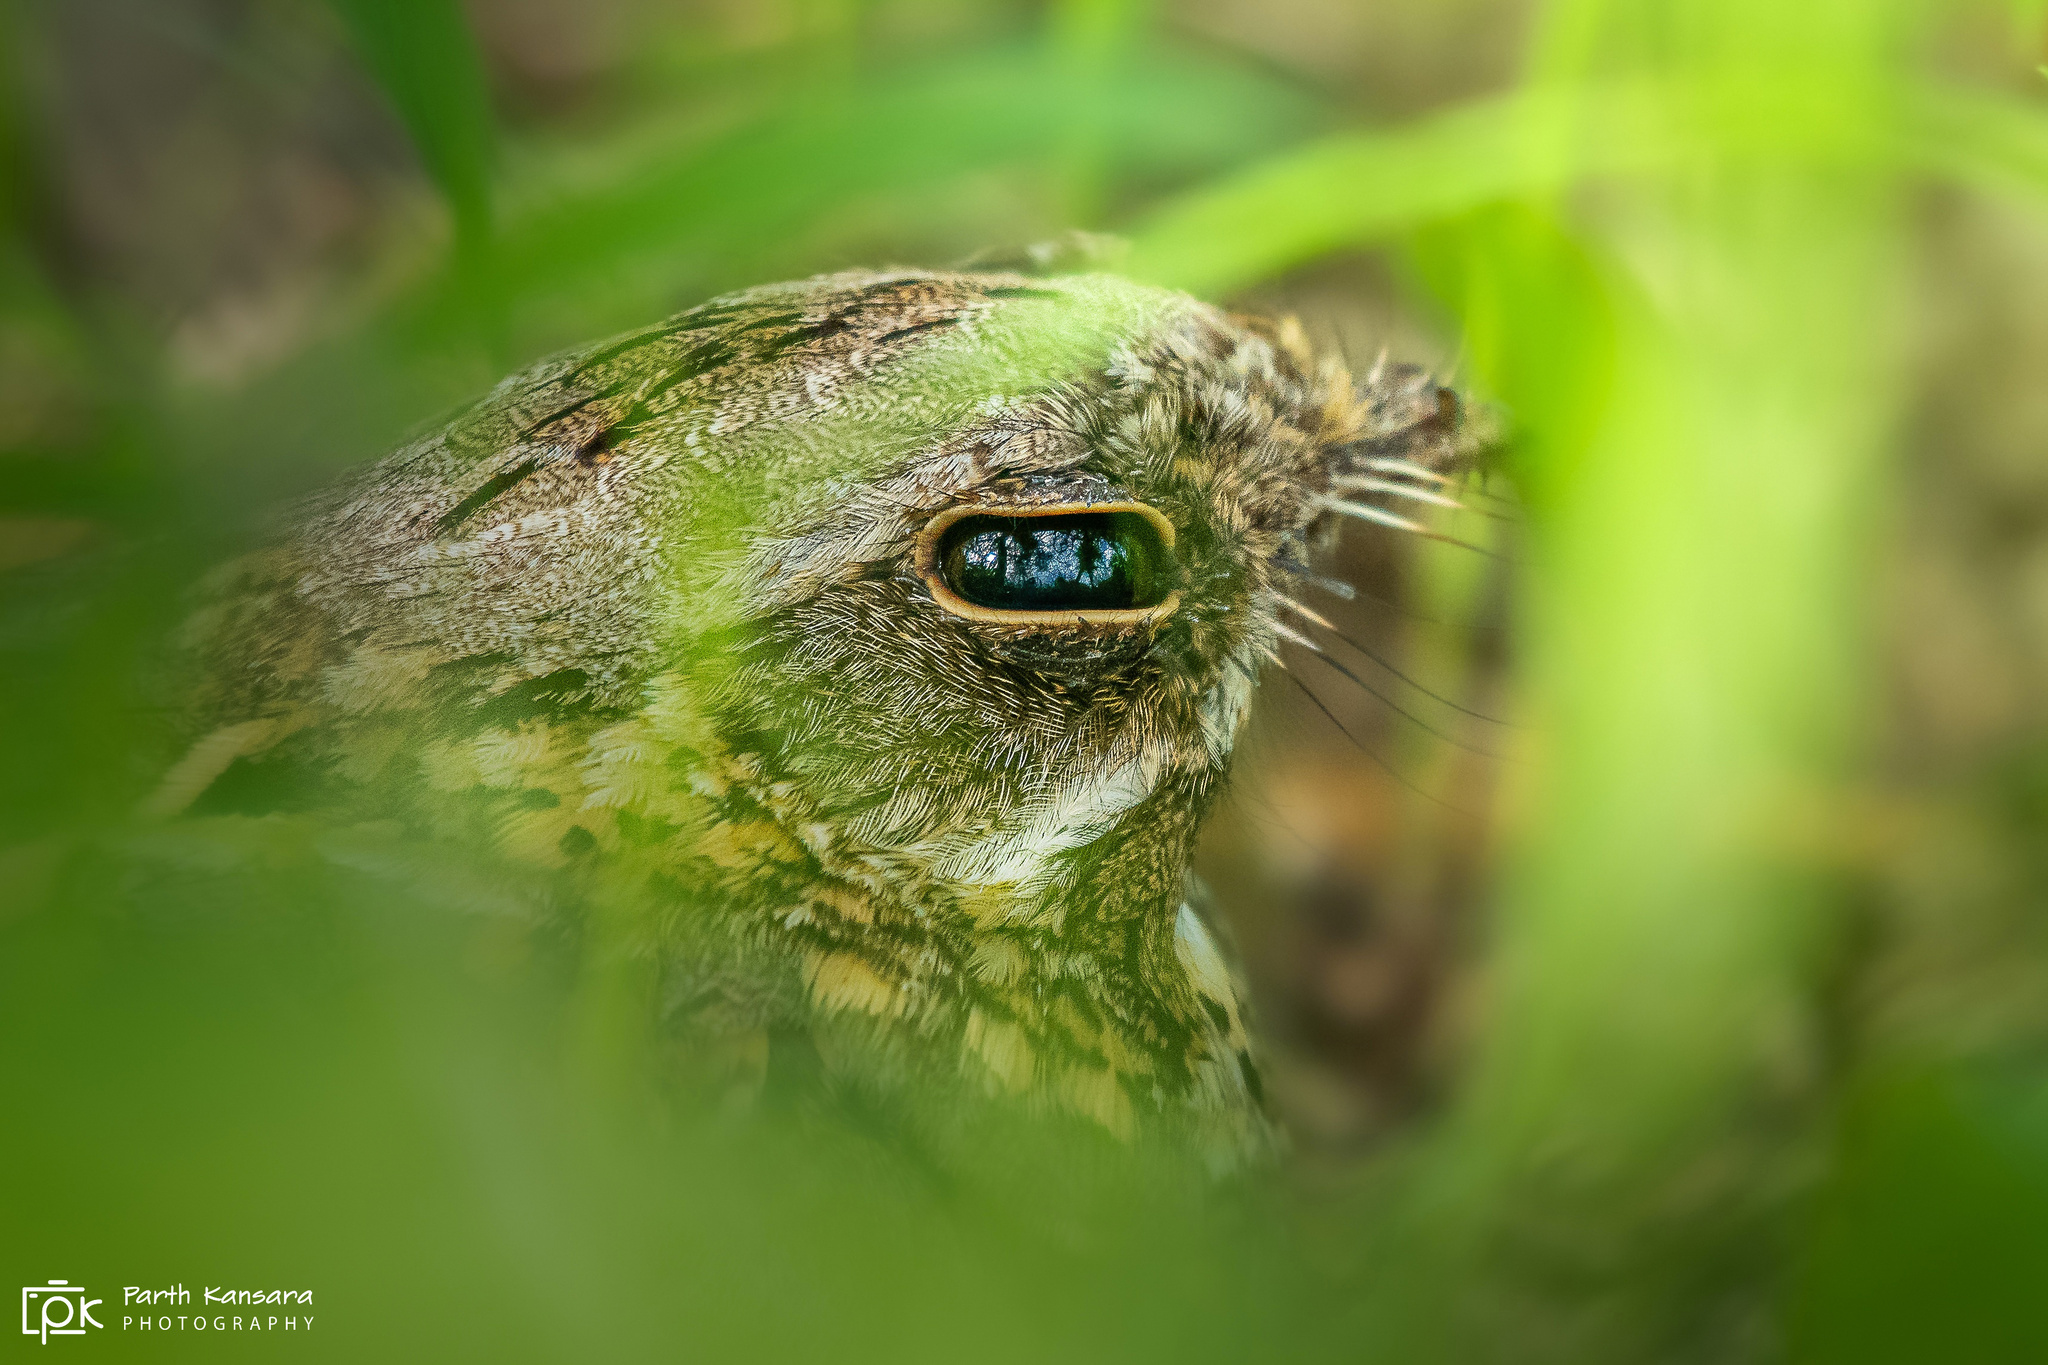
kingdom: Animalia
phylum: Chordata
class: Aves
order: Caprimulgiformes
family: Caprimulgidae
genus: Caprimulgus
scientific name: Caprimulgus asiaticus
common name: Indian nightjar
